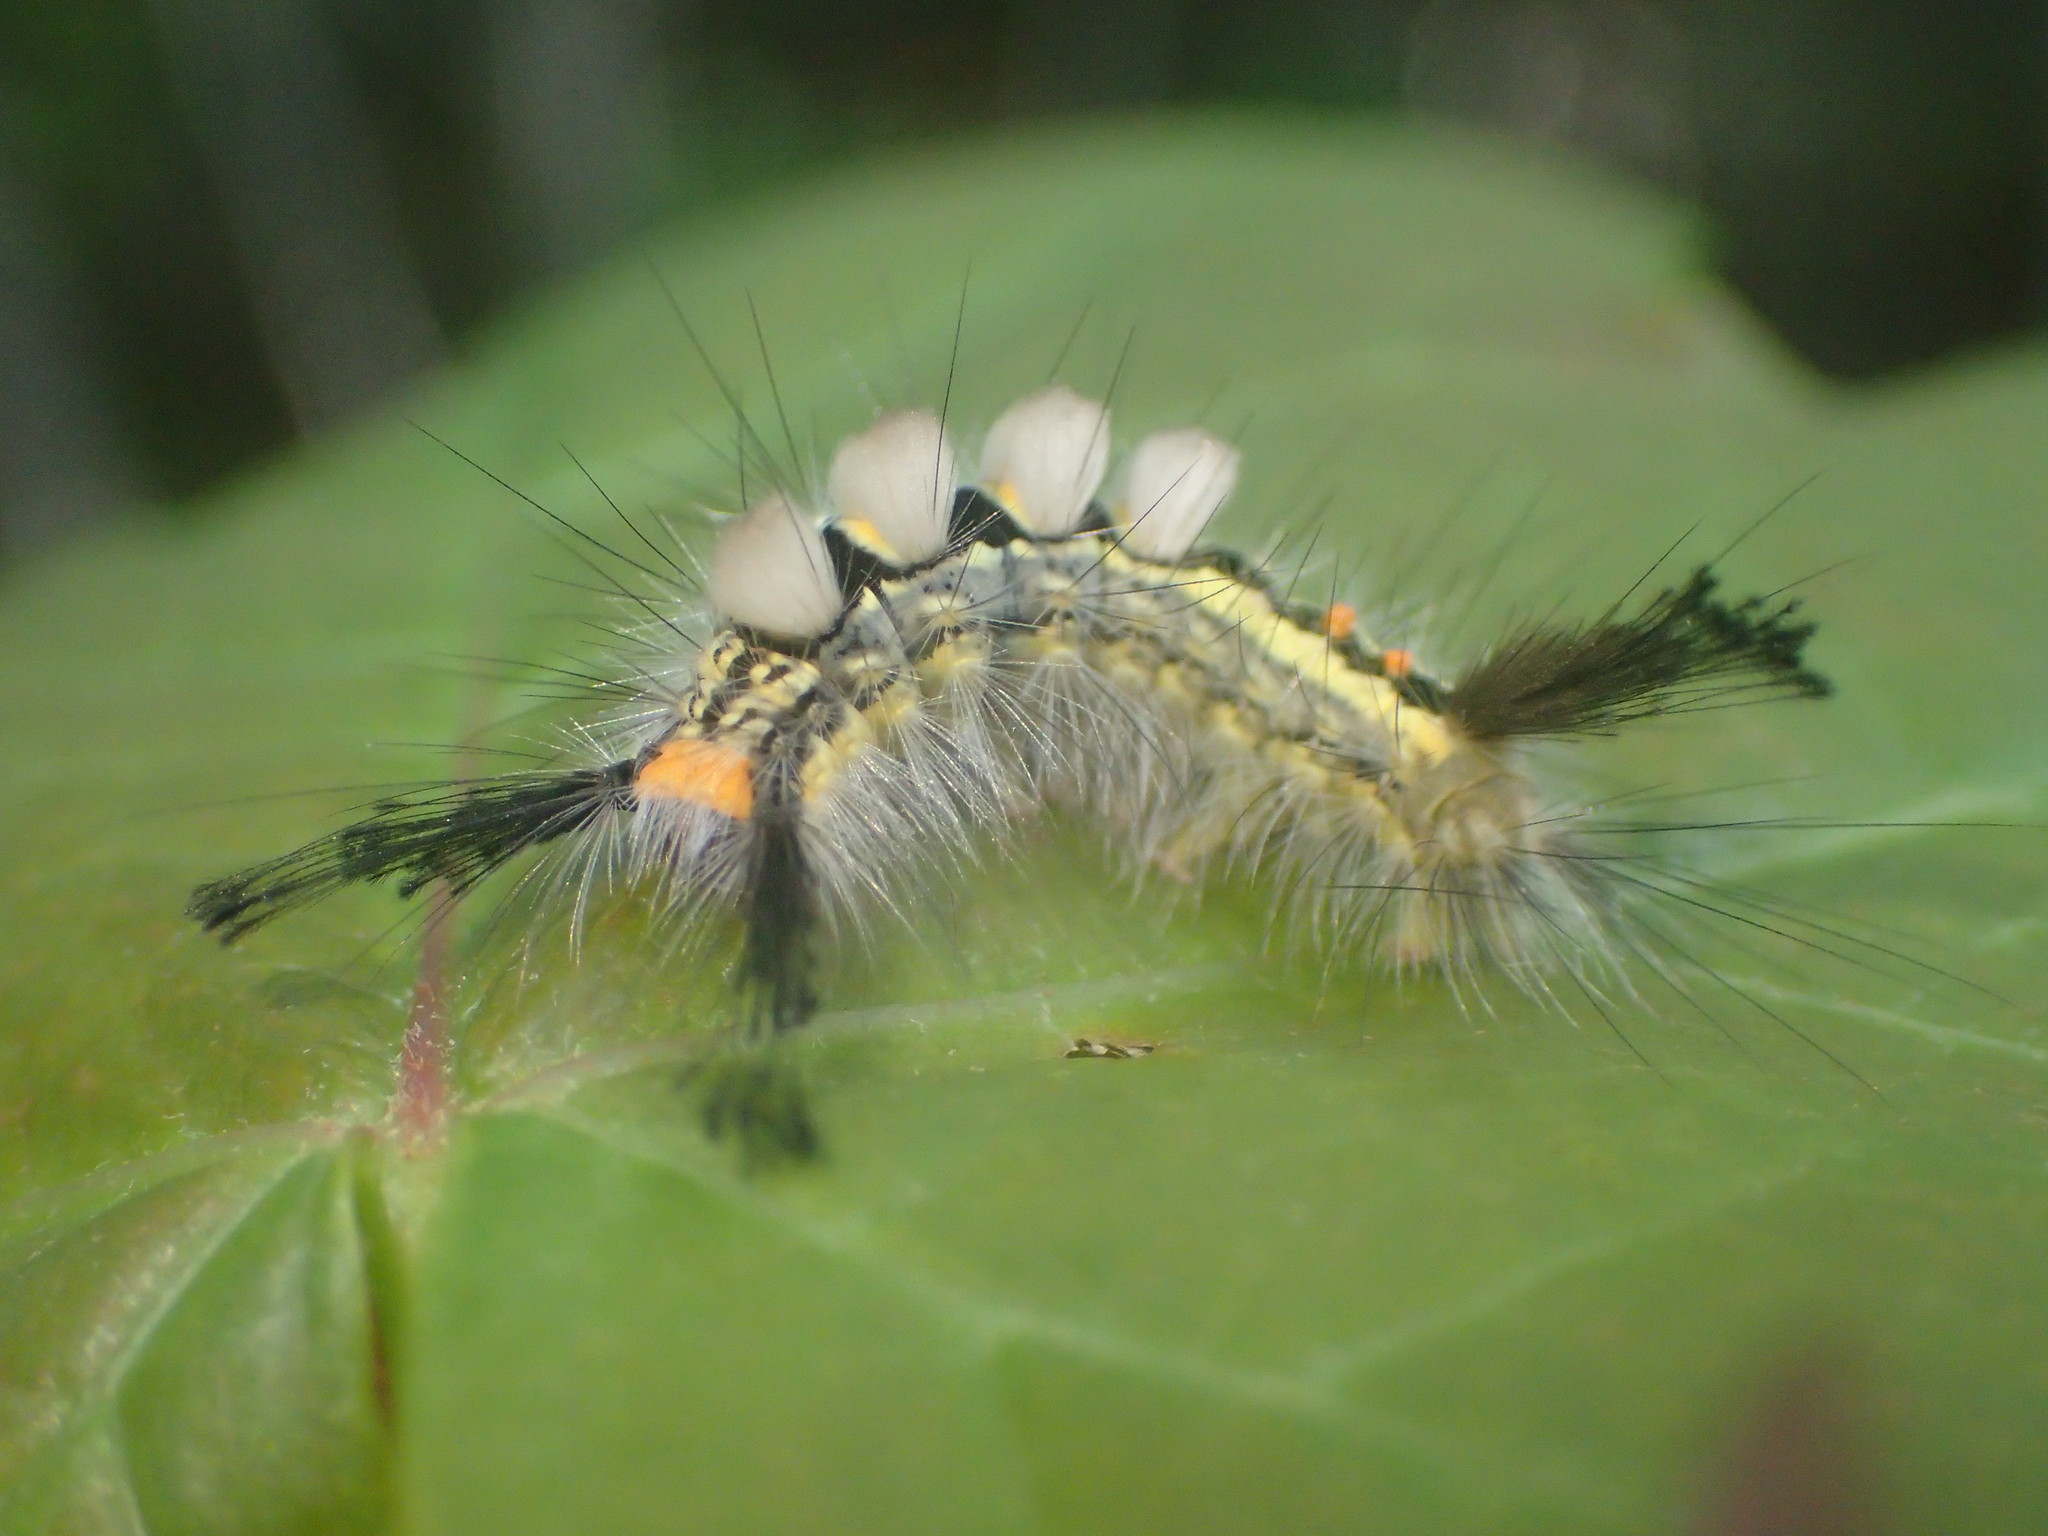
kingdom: Animalia
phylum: Arthropoda
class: Insecta
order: Lepidoptera
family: Erebidae
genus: Orgyia
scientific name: Orgyia leucostigma
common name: White-marked tussock moth
